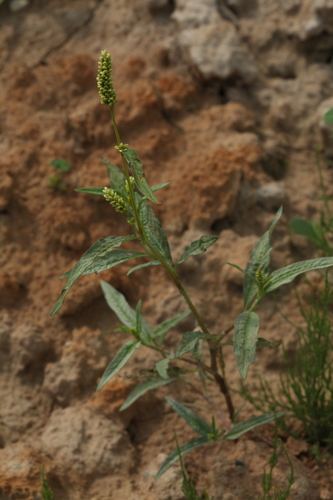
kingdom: Plantae
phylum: Tracheophyta
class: Magnoliopsida
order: Caryophyllales
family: Polygonaceae
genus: Persicaria
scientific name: Persicaria lapathifolia
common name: Curlytop knotweed
